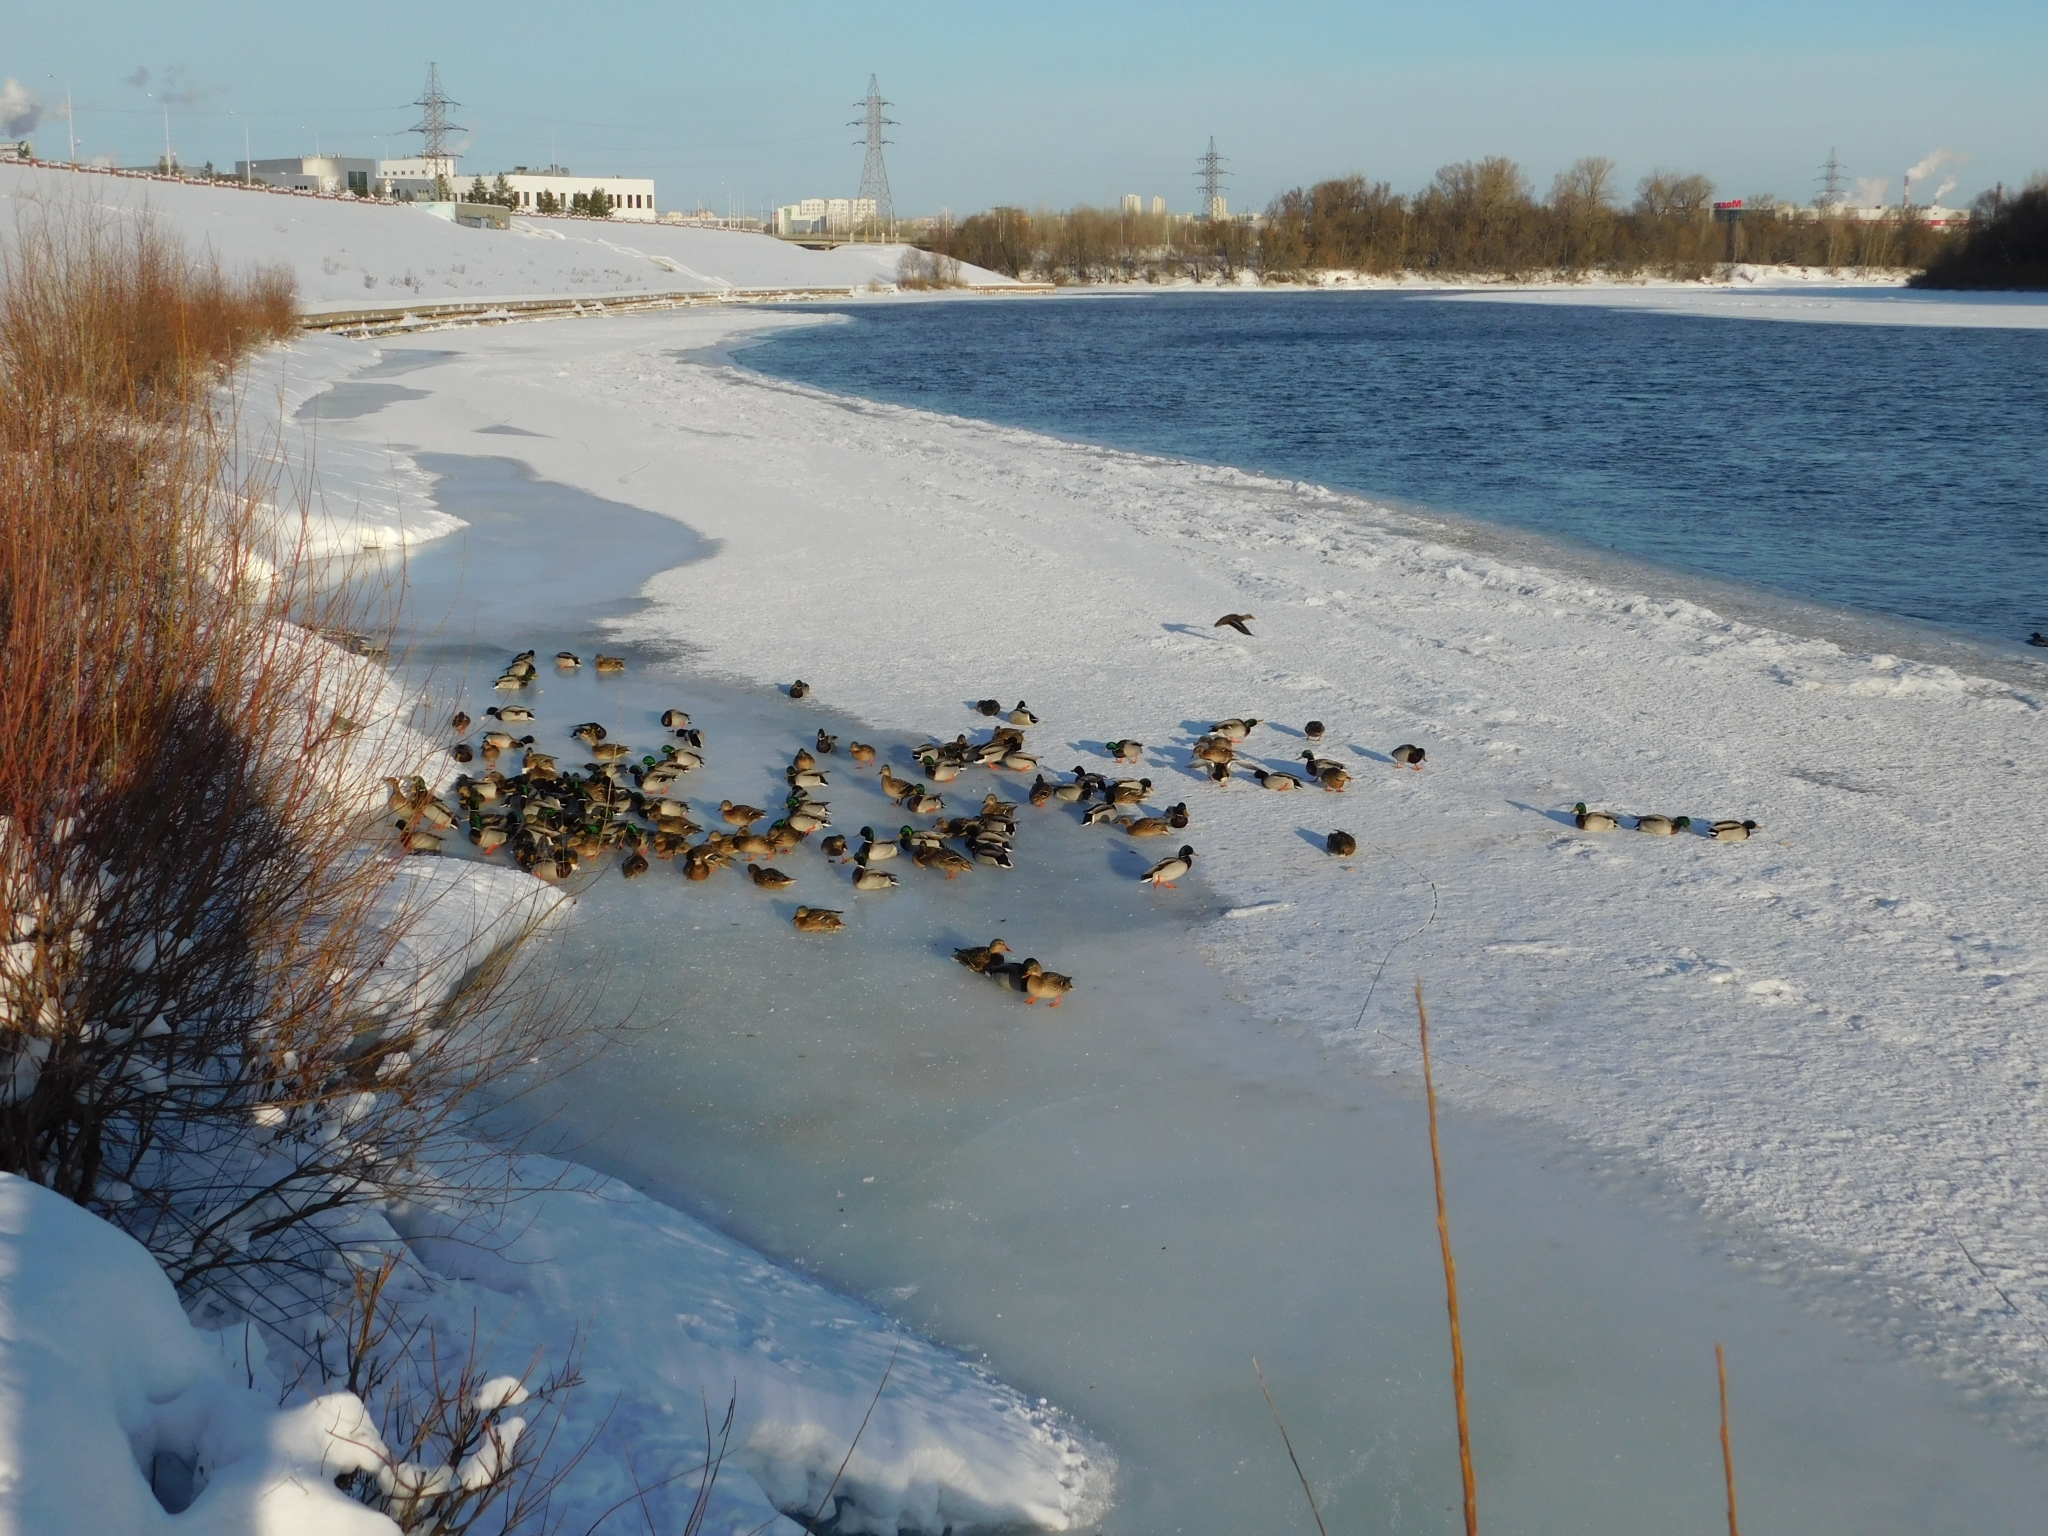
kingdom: Animalia
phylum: Chordata
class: Aves
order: Anseriformes
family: Anatidae
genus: Anas
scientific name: Anas platyrhynchos
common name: Mallard
